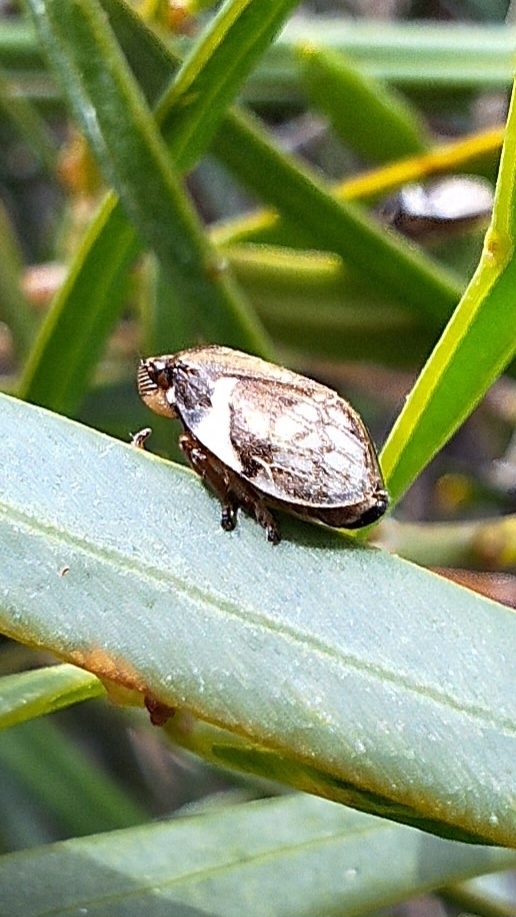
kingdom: Animalia
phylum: Arthropoda
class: Insecta
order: Hemiptera
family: Aphrophoridae
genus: Bathyllus
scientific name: Bathyllus albicinctus
